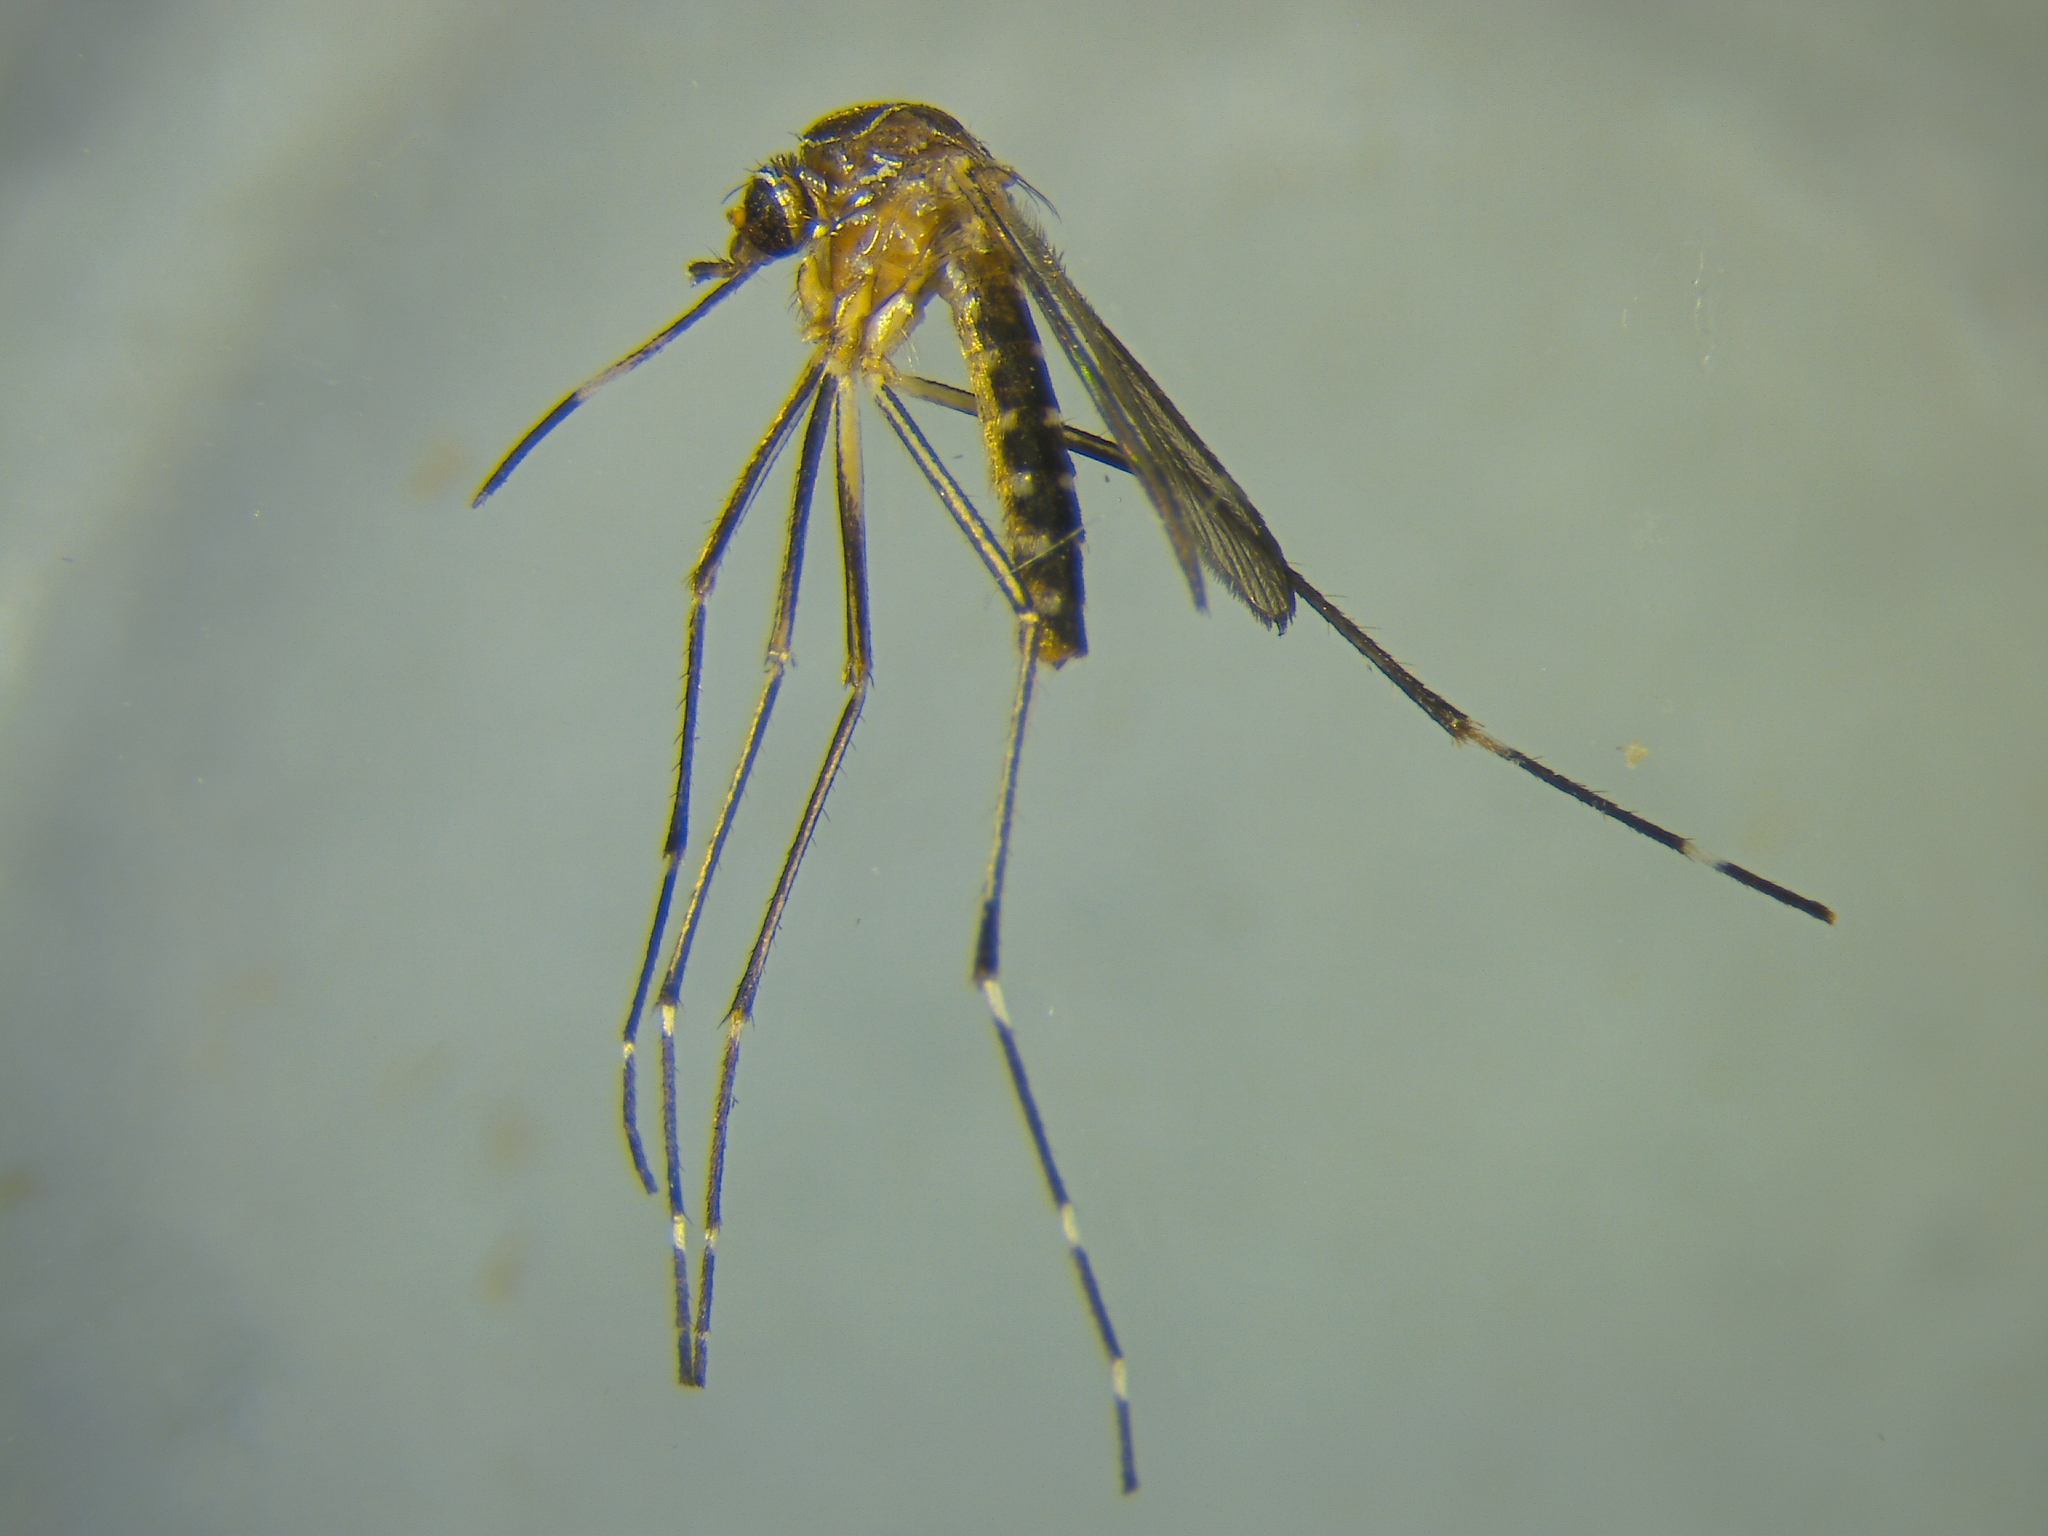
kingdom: Animalia
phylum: Arthropoda
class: Insecta
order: Diptera
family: Culicidae
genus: Aedes
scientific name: Aedes notoscriptus
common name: Australian backyard mosquito
